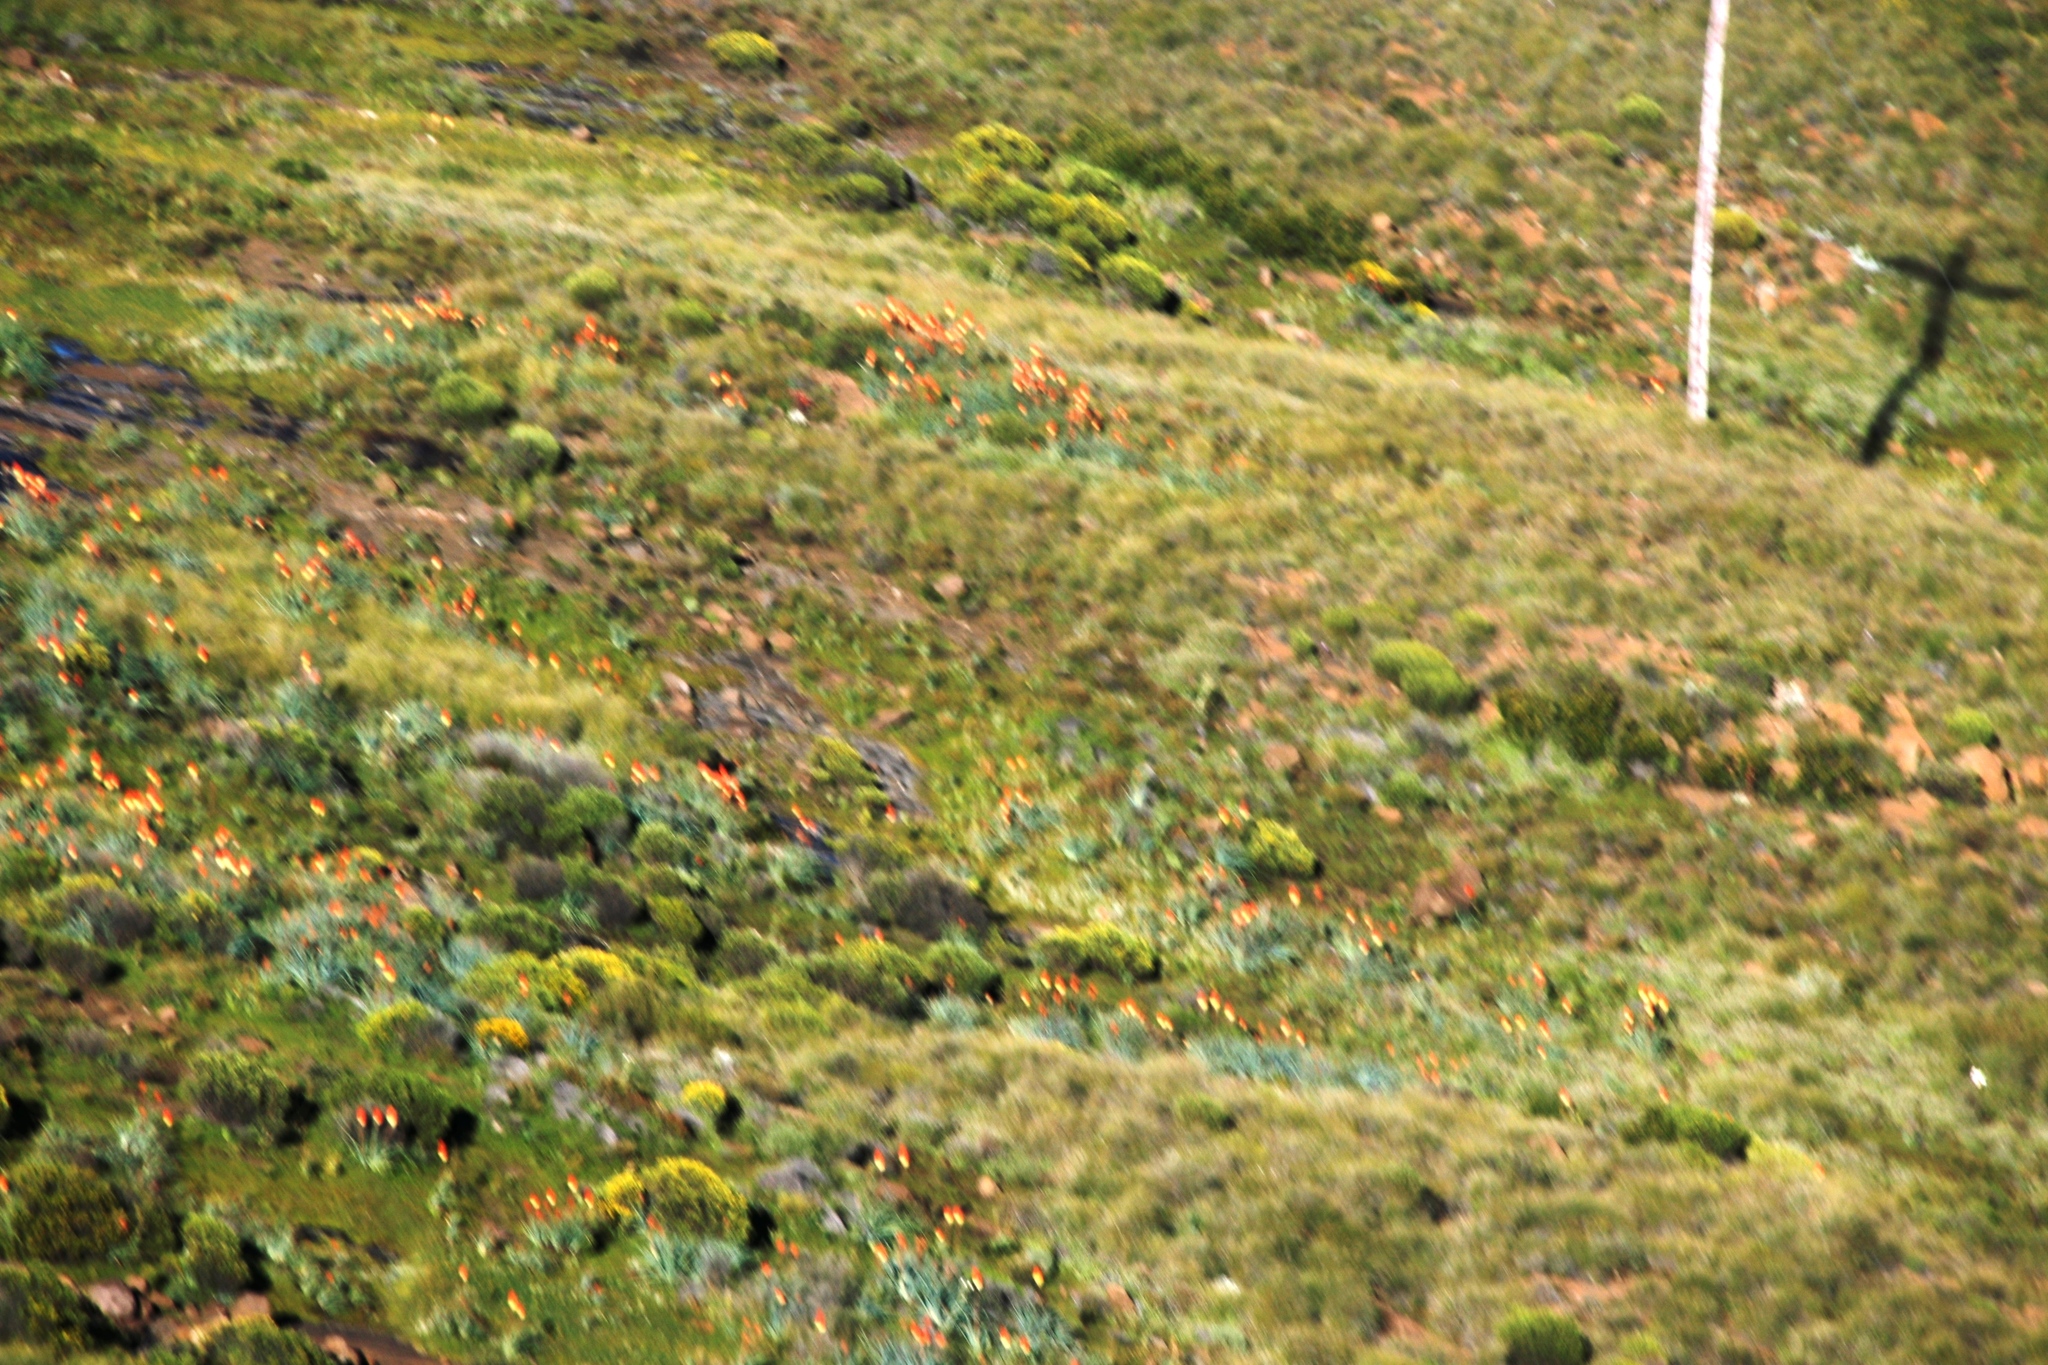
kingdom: Plantae
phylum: Tracheophyta
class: Liliopsida
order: Asparagales
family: Asphodelaceae
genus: Kniphofia
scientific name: Kniphofia caulescens
